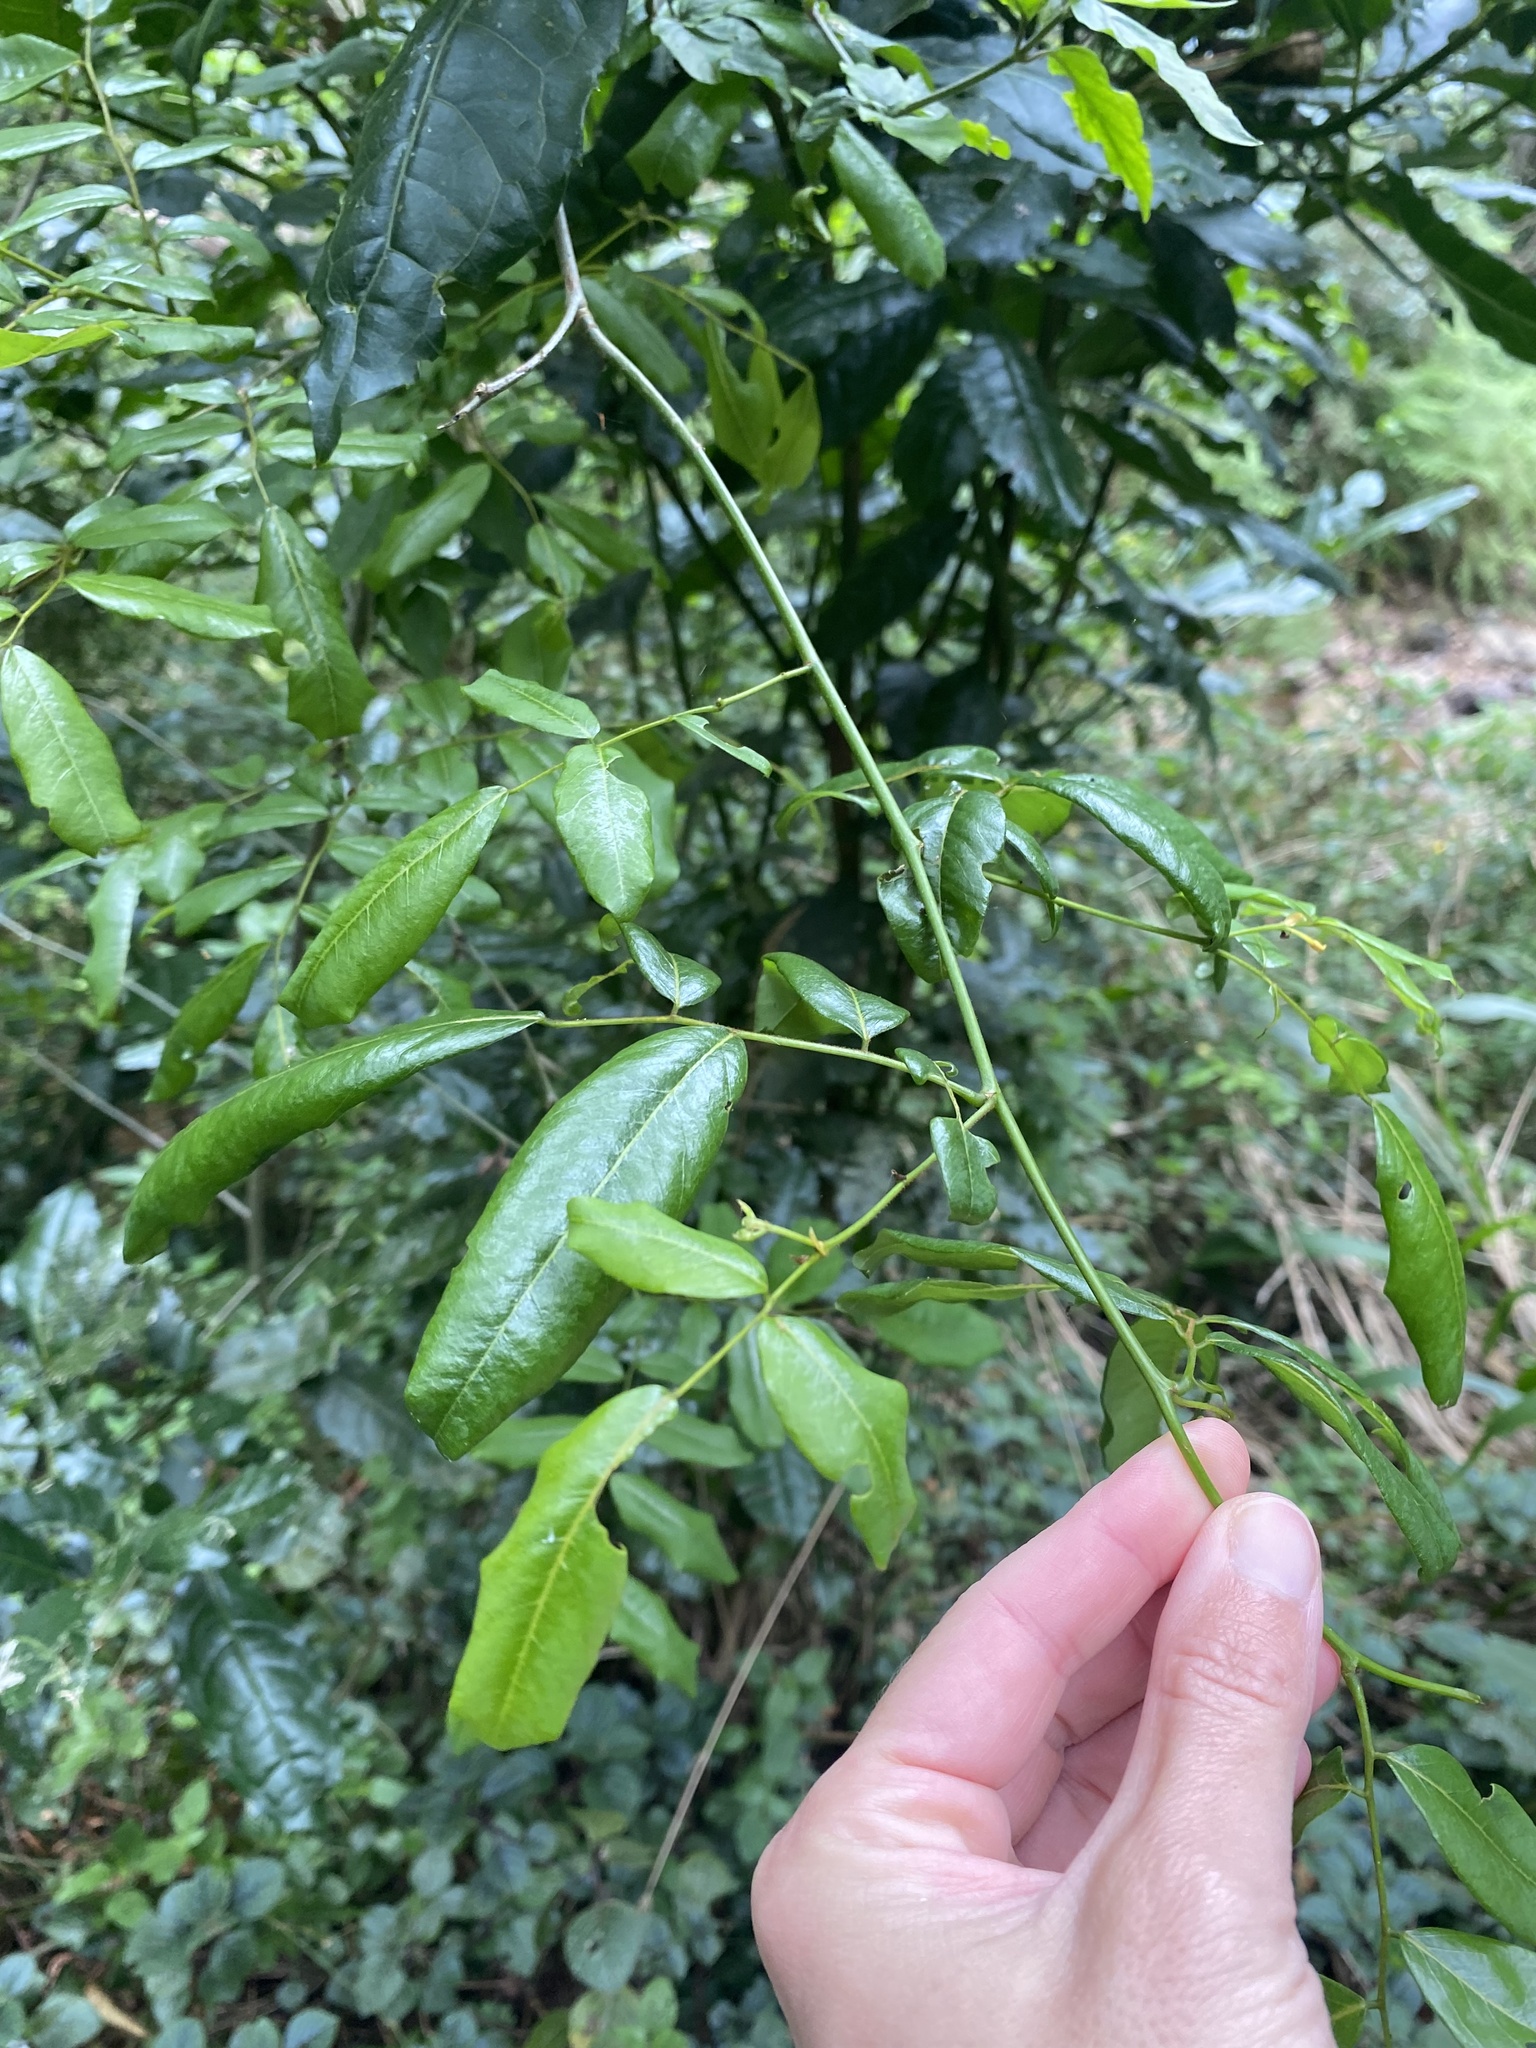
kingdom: Plantae
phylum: Tracheophyta
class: Magnoliopsida
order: Fabales
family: Fabaceae
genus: Dalbergia
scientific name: Dalbergia obovata
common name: Climbing flat-bean
